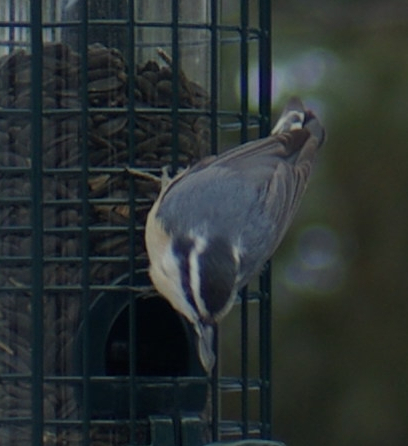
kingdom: Animalia
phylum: Chordata
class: Aves
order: Passeriformes
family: Sittidae
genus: Sitta
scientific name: Sitta canadensis
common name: Red-breasted nuthatch
